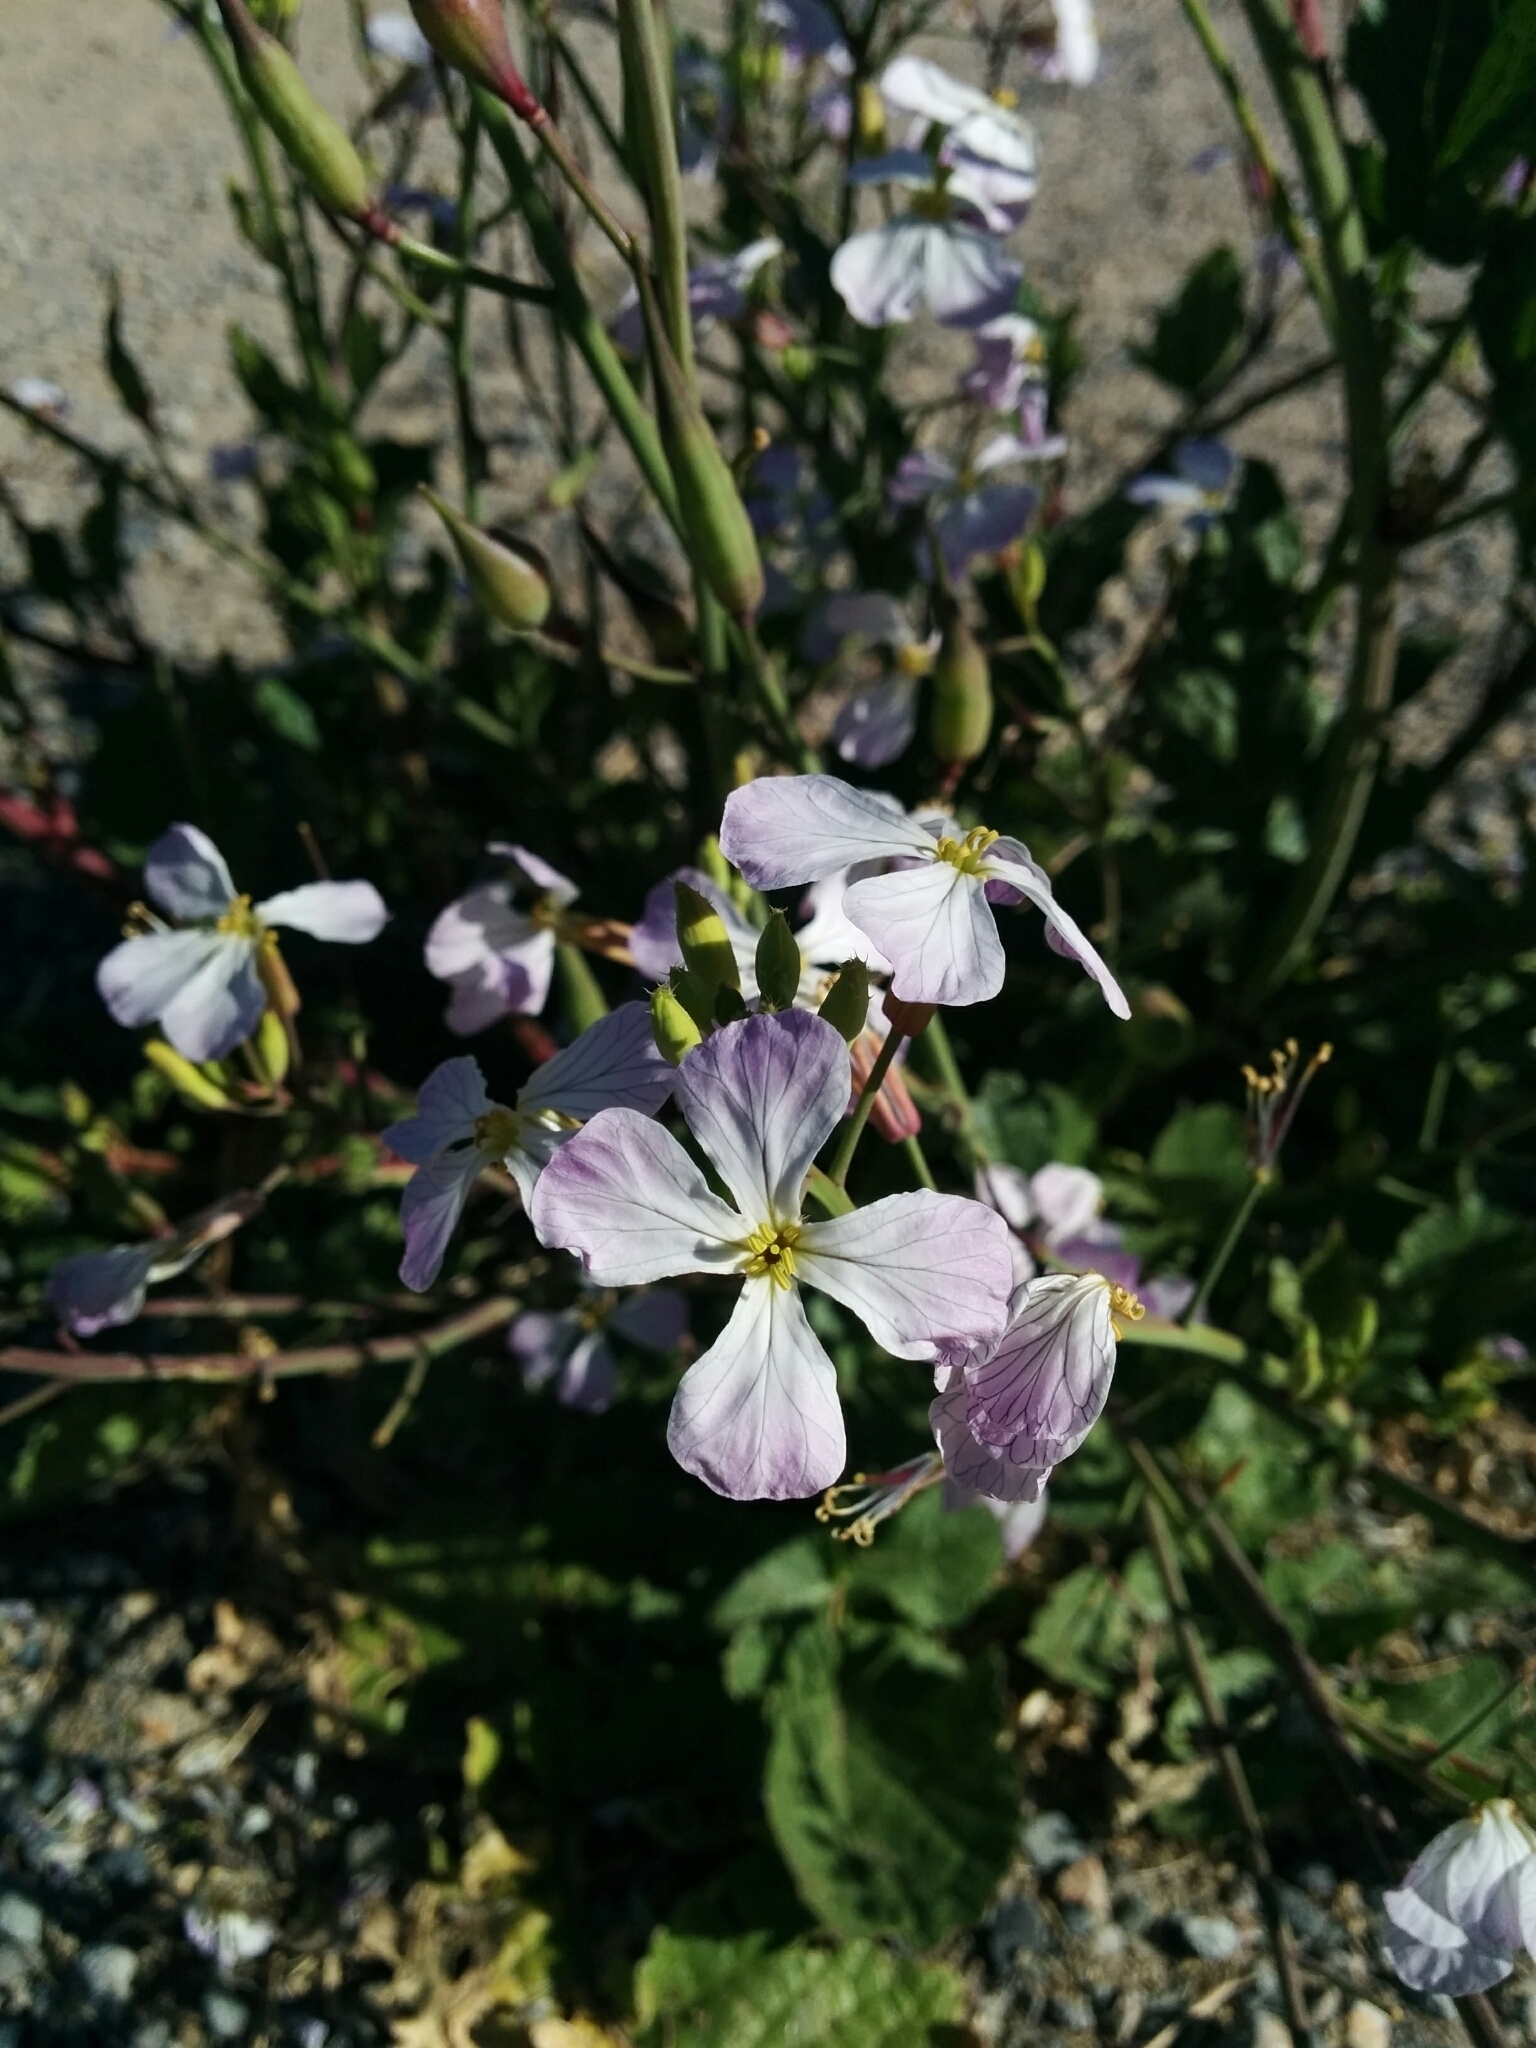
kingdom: Plantae
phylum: Tracheophyta
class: Magnoliopsida
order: Brassicales
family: Brassicaceae
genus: Raphanus
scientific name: Raphanus sativus
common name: Cultivated radish
